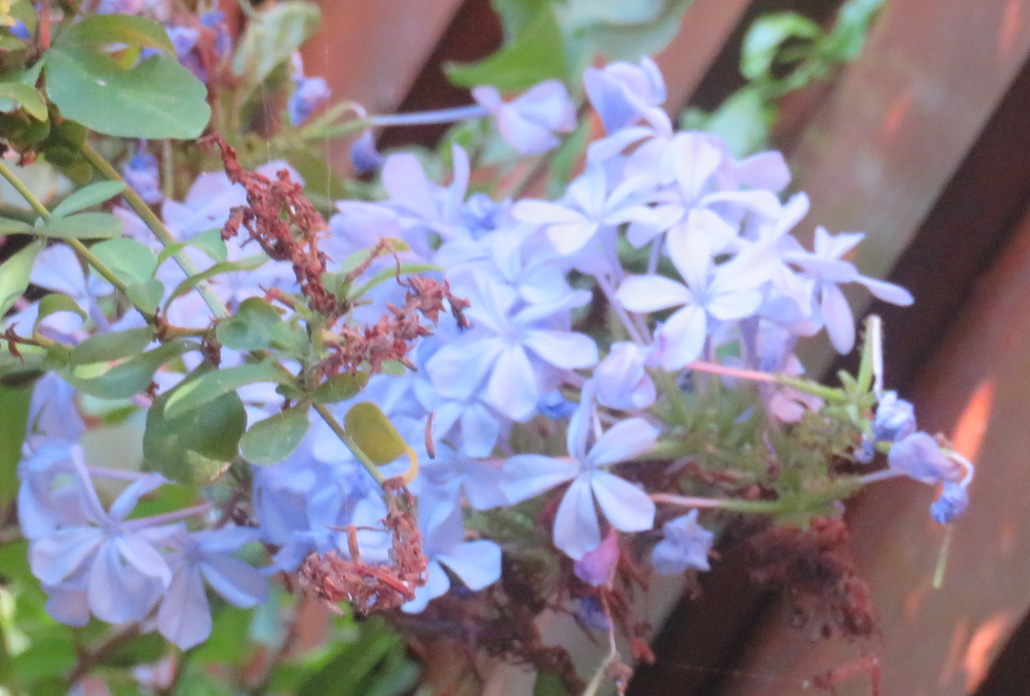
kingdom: Plantae
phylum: Tracheophyta
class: Magnoliopsida
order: Caryophyllales
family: Plumbaginaceae
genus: Plumbago
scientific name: Plumbago auriculata
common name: Cape leadwort
